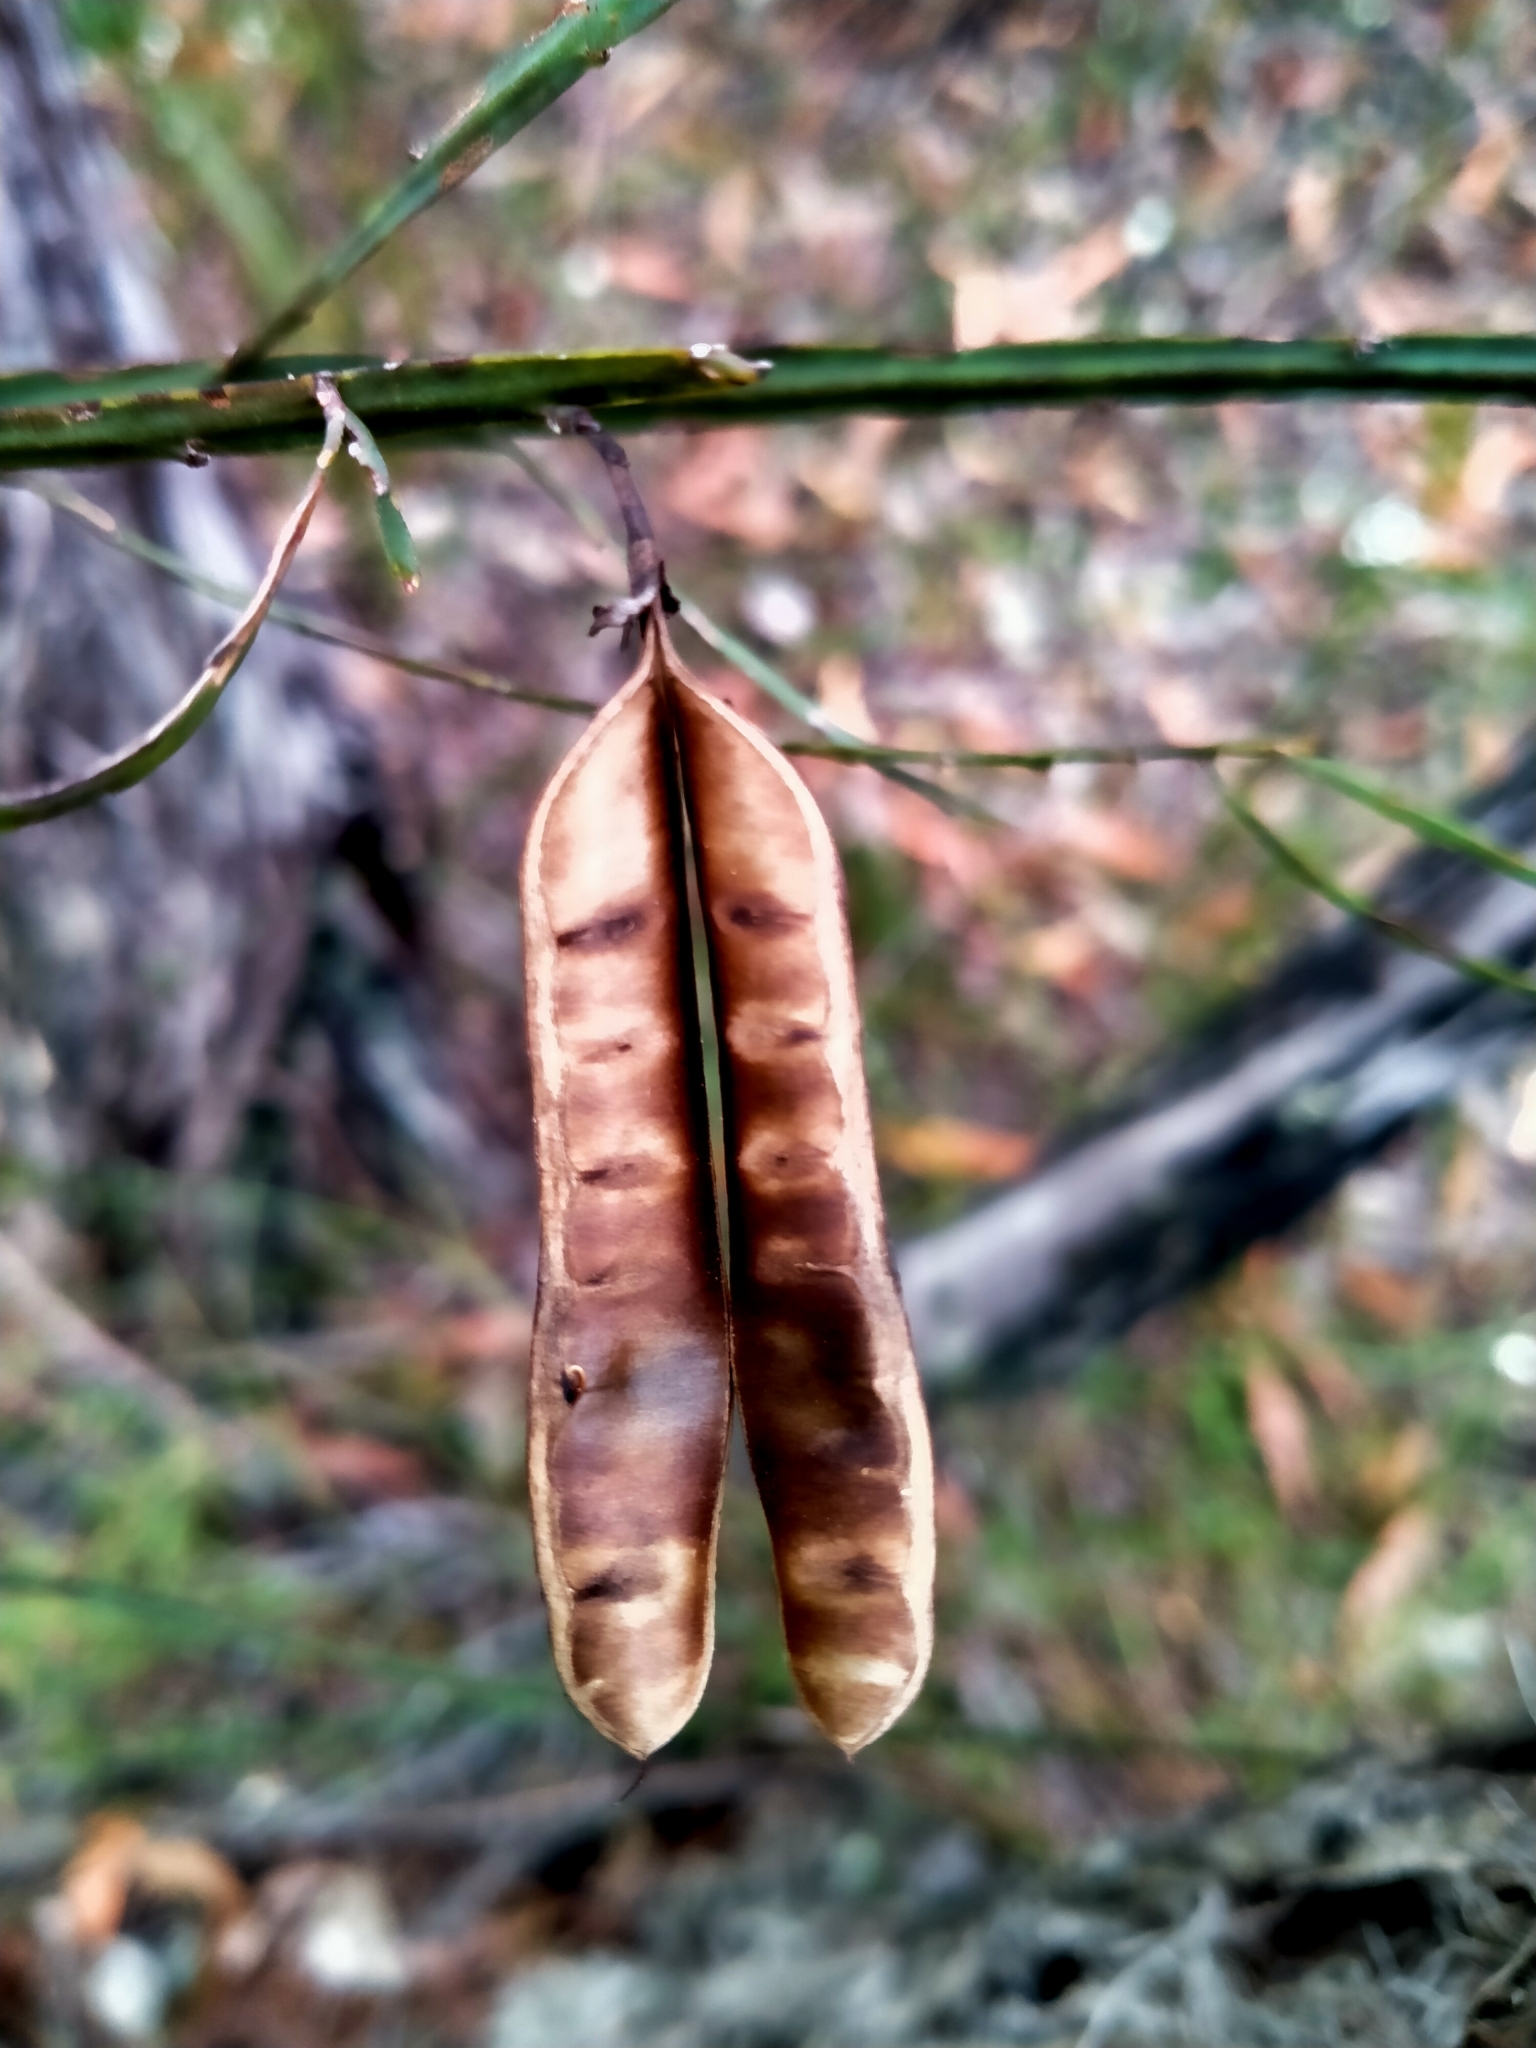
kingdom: Plantae
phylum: Tracheophyta
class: Magnoliopsida
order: Fabales
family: Fabaceae
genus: Bossiaea
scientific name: Bossiaea ensata
